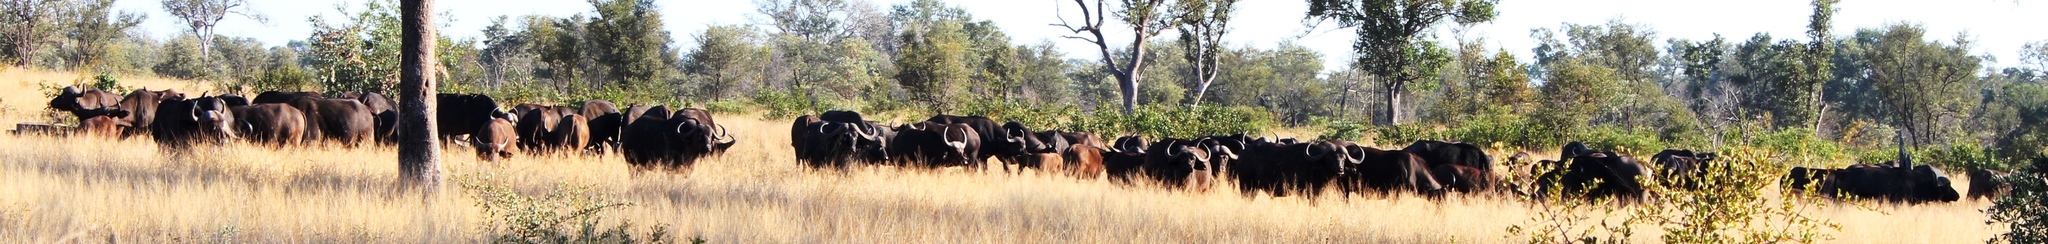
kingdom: Animalia
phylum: Chordata
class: Mammalia
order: Artiodactyla
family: Bovidae
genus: Syncerus
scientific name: Syncerus caffer
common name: African buffalo
